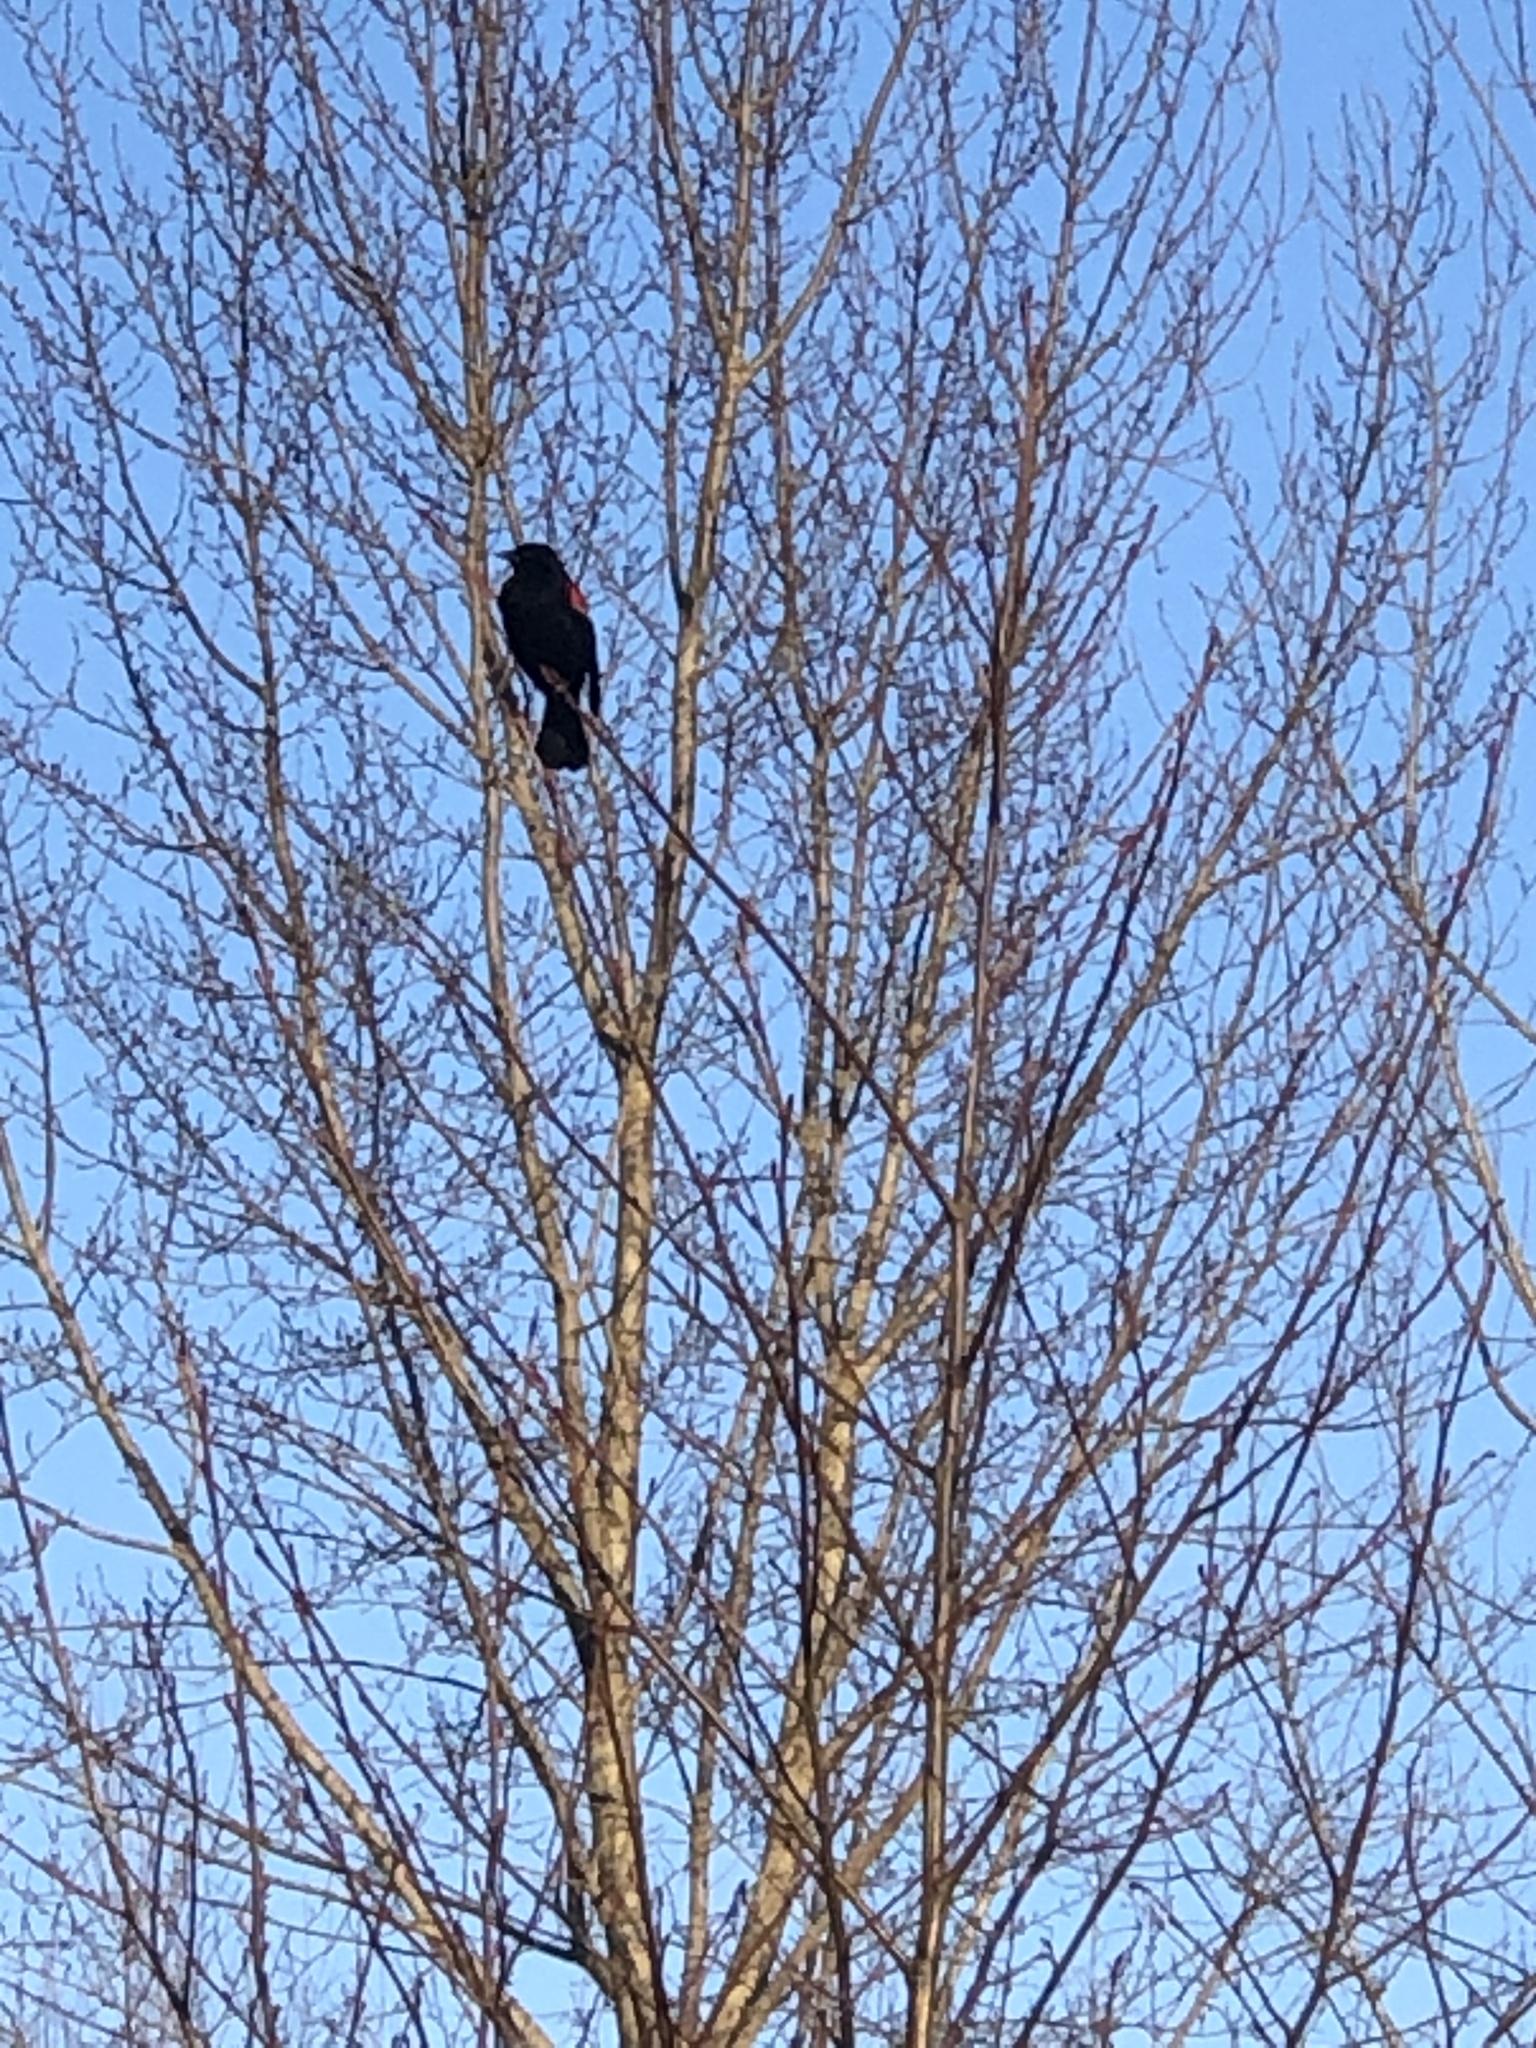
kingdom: Animalia
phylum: Chordata
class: Aves
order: Passeriformes
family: Icteridae
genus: Agelaius
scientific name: Agelaius phoeniceus
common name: Red-winged blackbird
